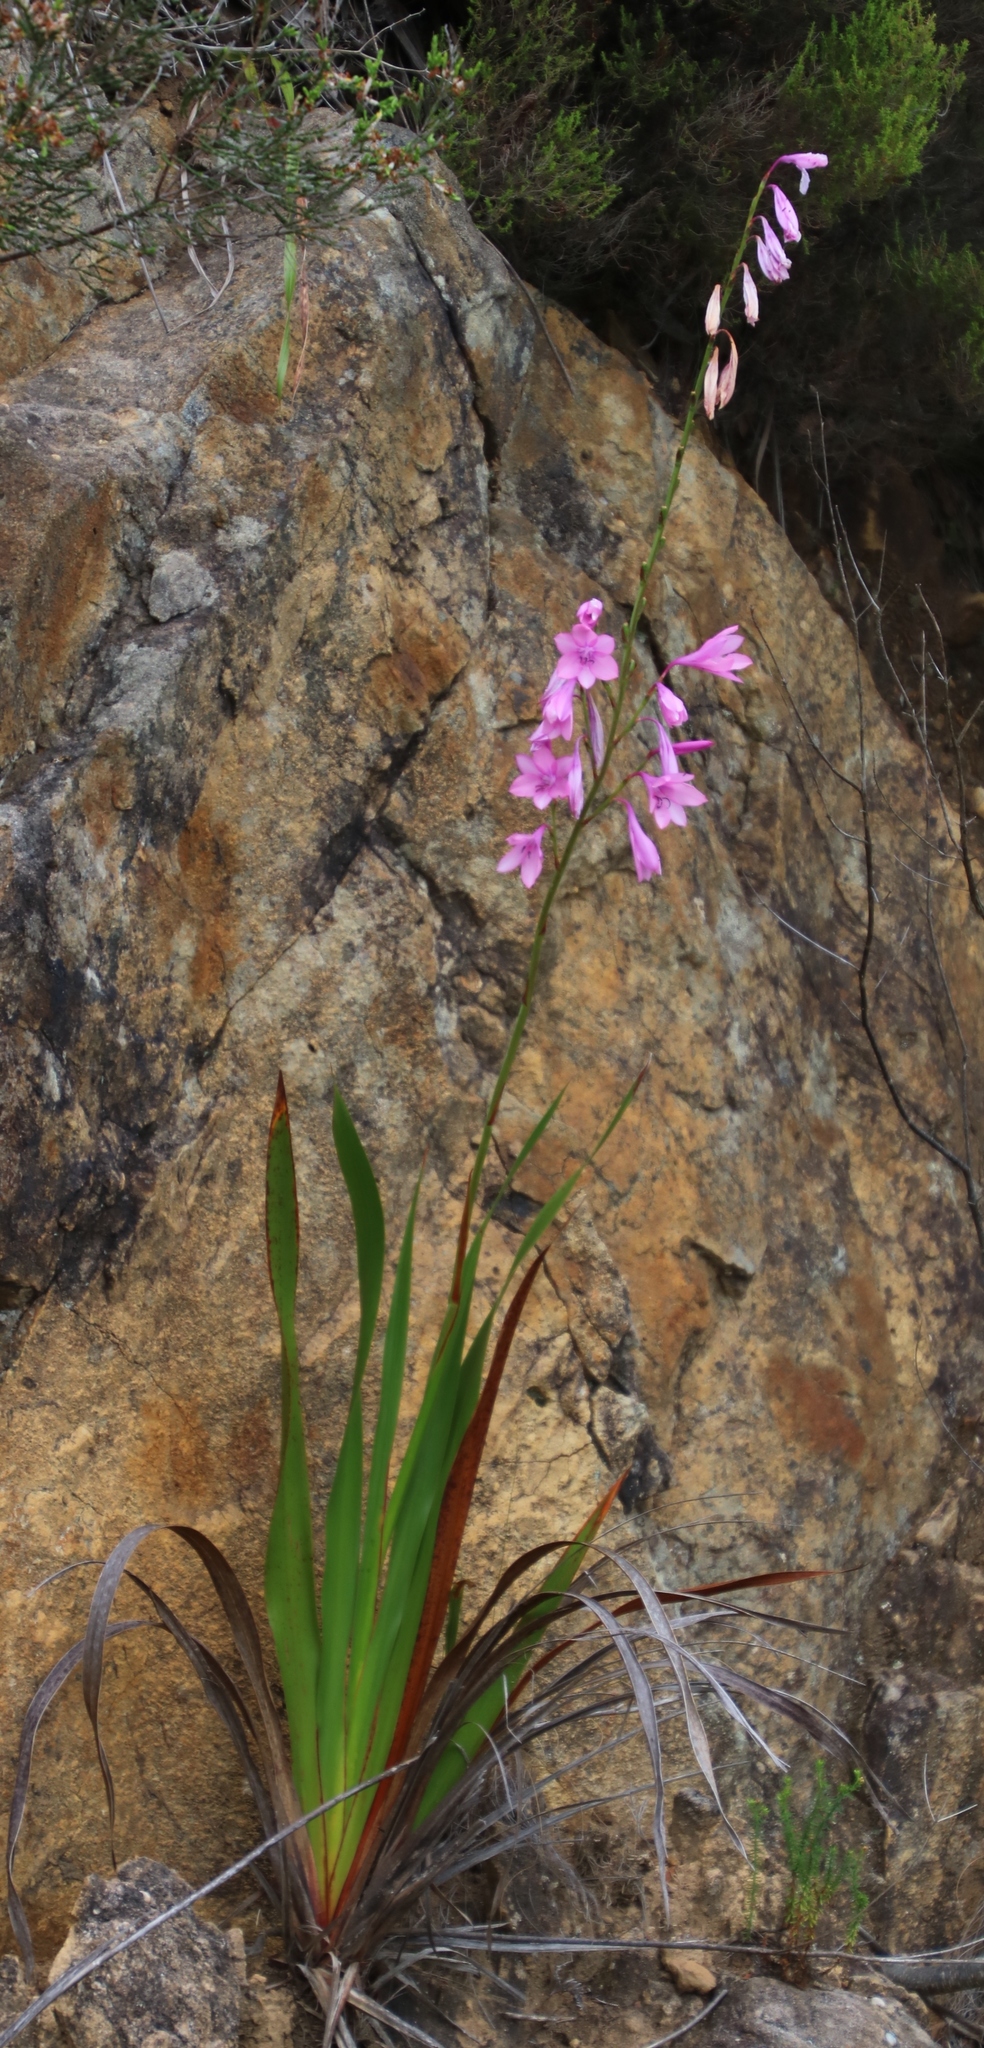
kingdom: Plantae
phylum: Tracheophyta
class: Liliopsida
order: Asparagales
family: Iridaceae
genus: Watsonia
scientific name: Watsonia borbonica
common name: Bugle-lily
